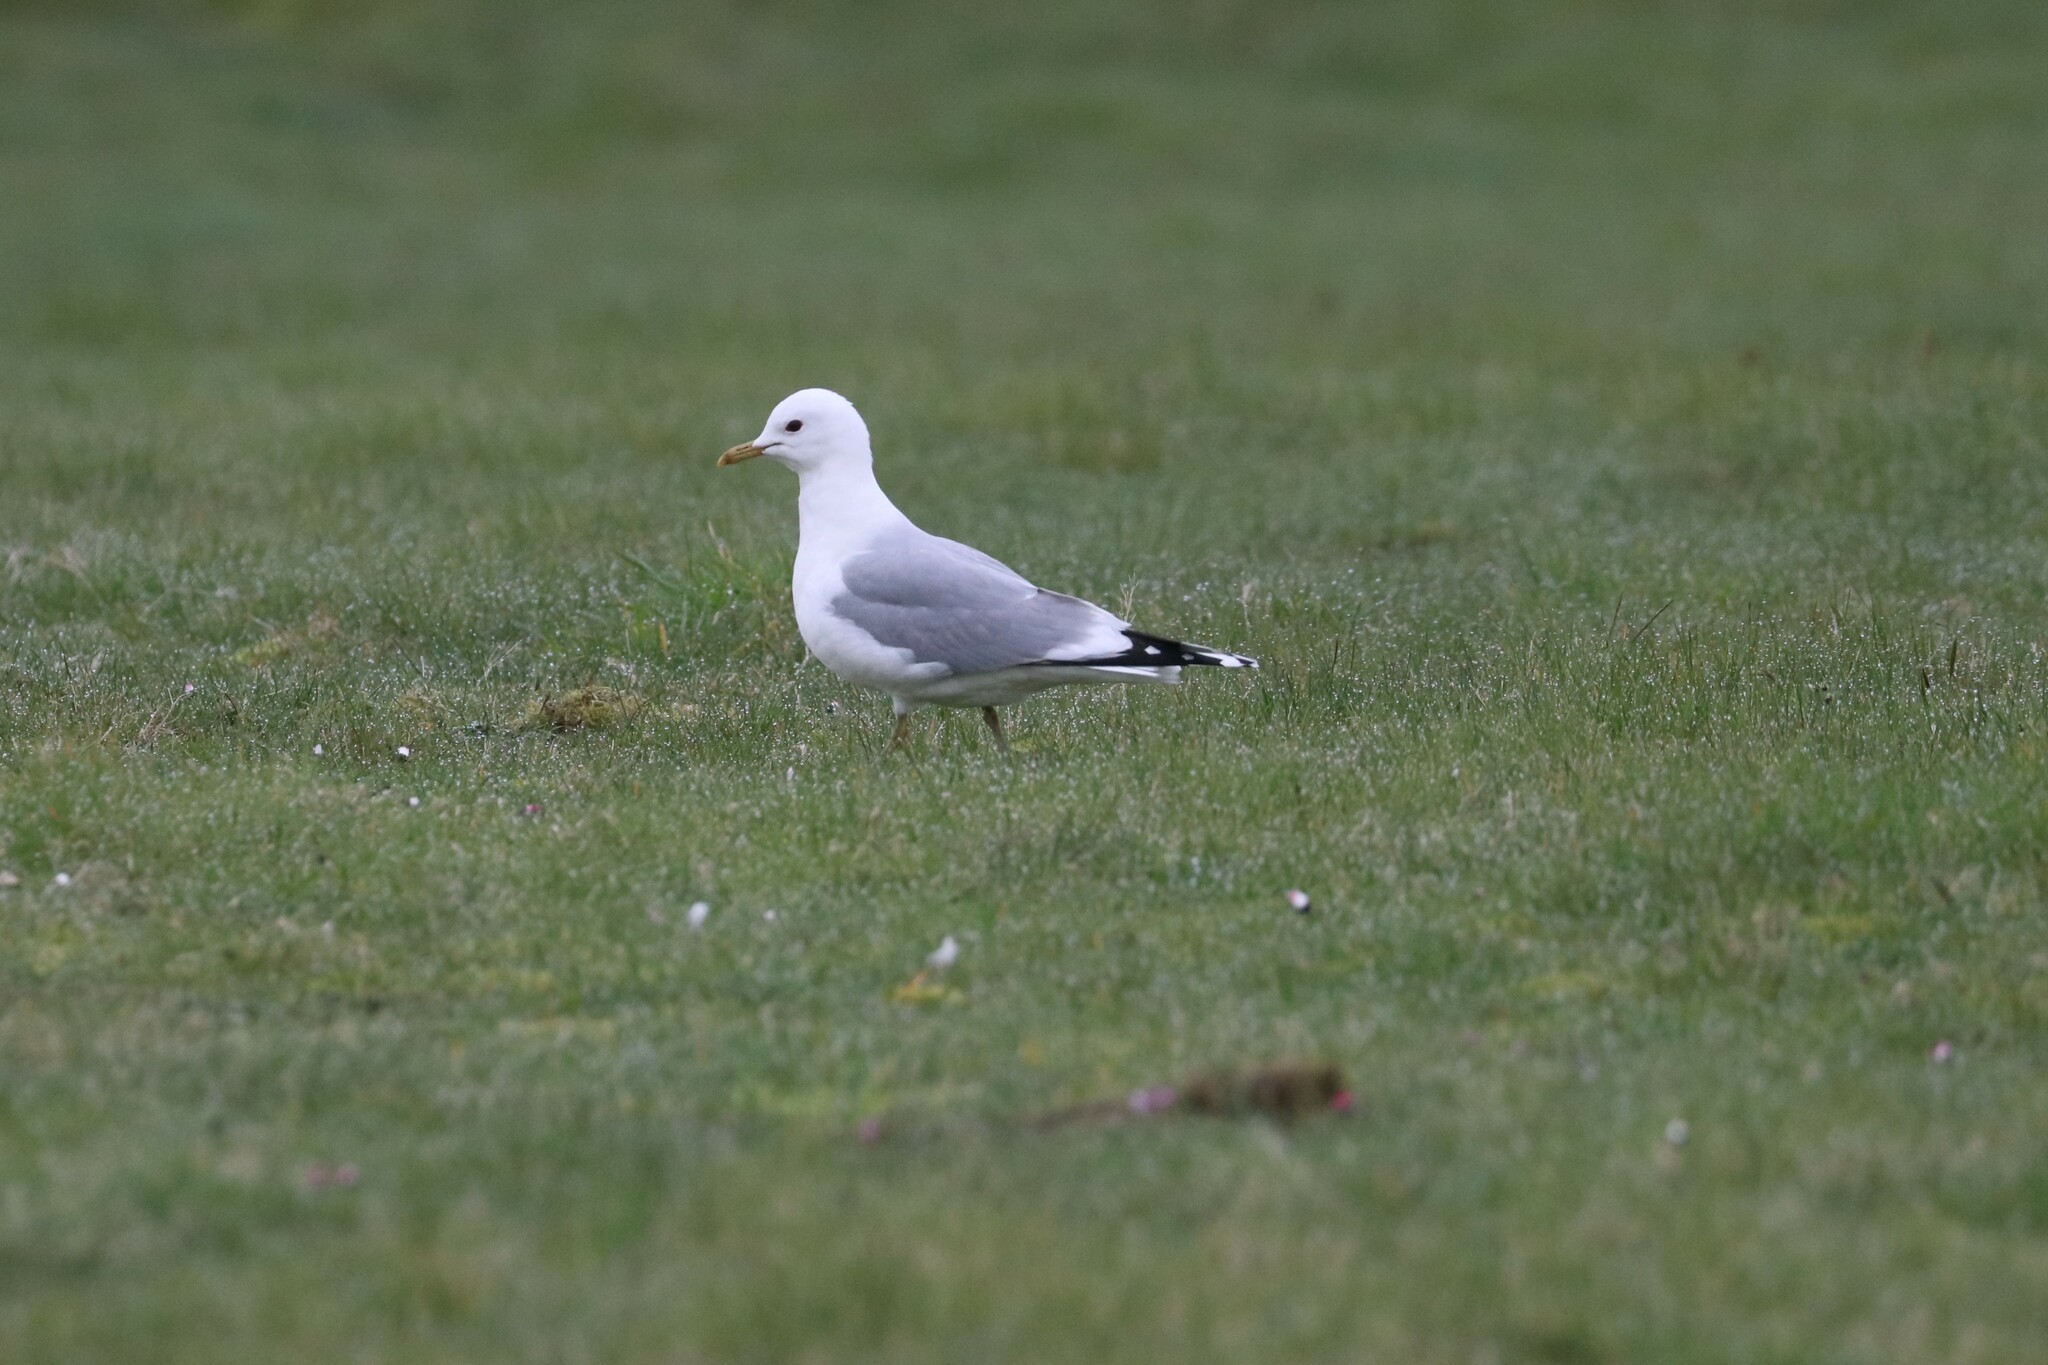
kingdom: Animalia
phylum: Chordata
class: Aves
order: Charadriiformes
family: Laridae
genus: Larus
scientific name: Larus canus
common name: Mew gull
